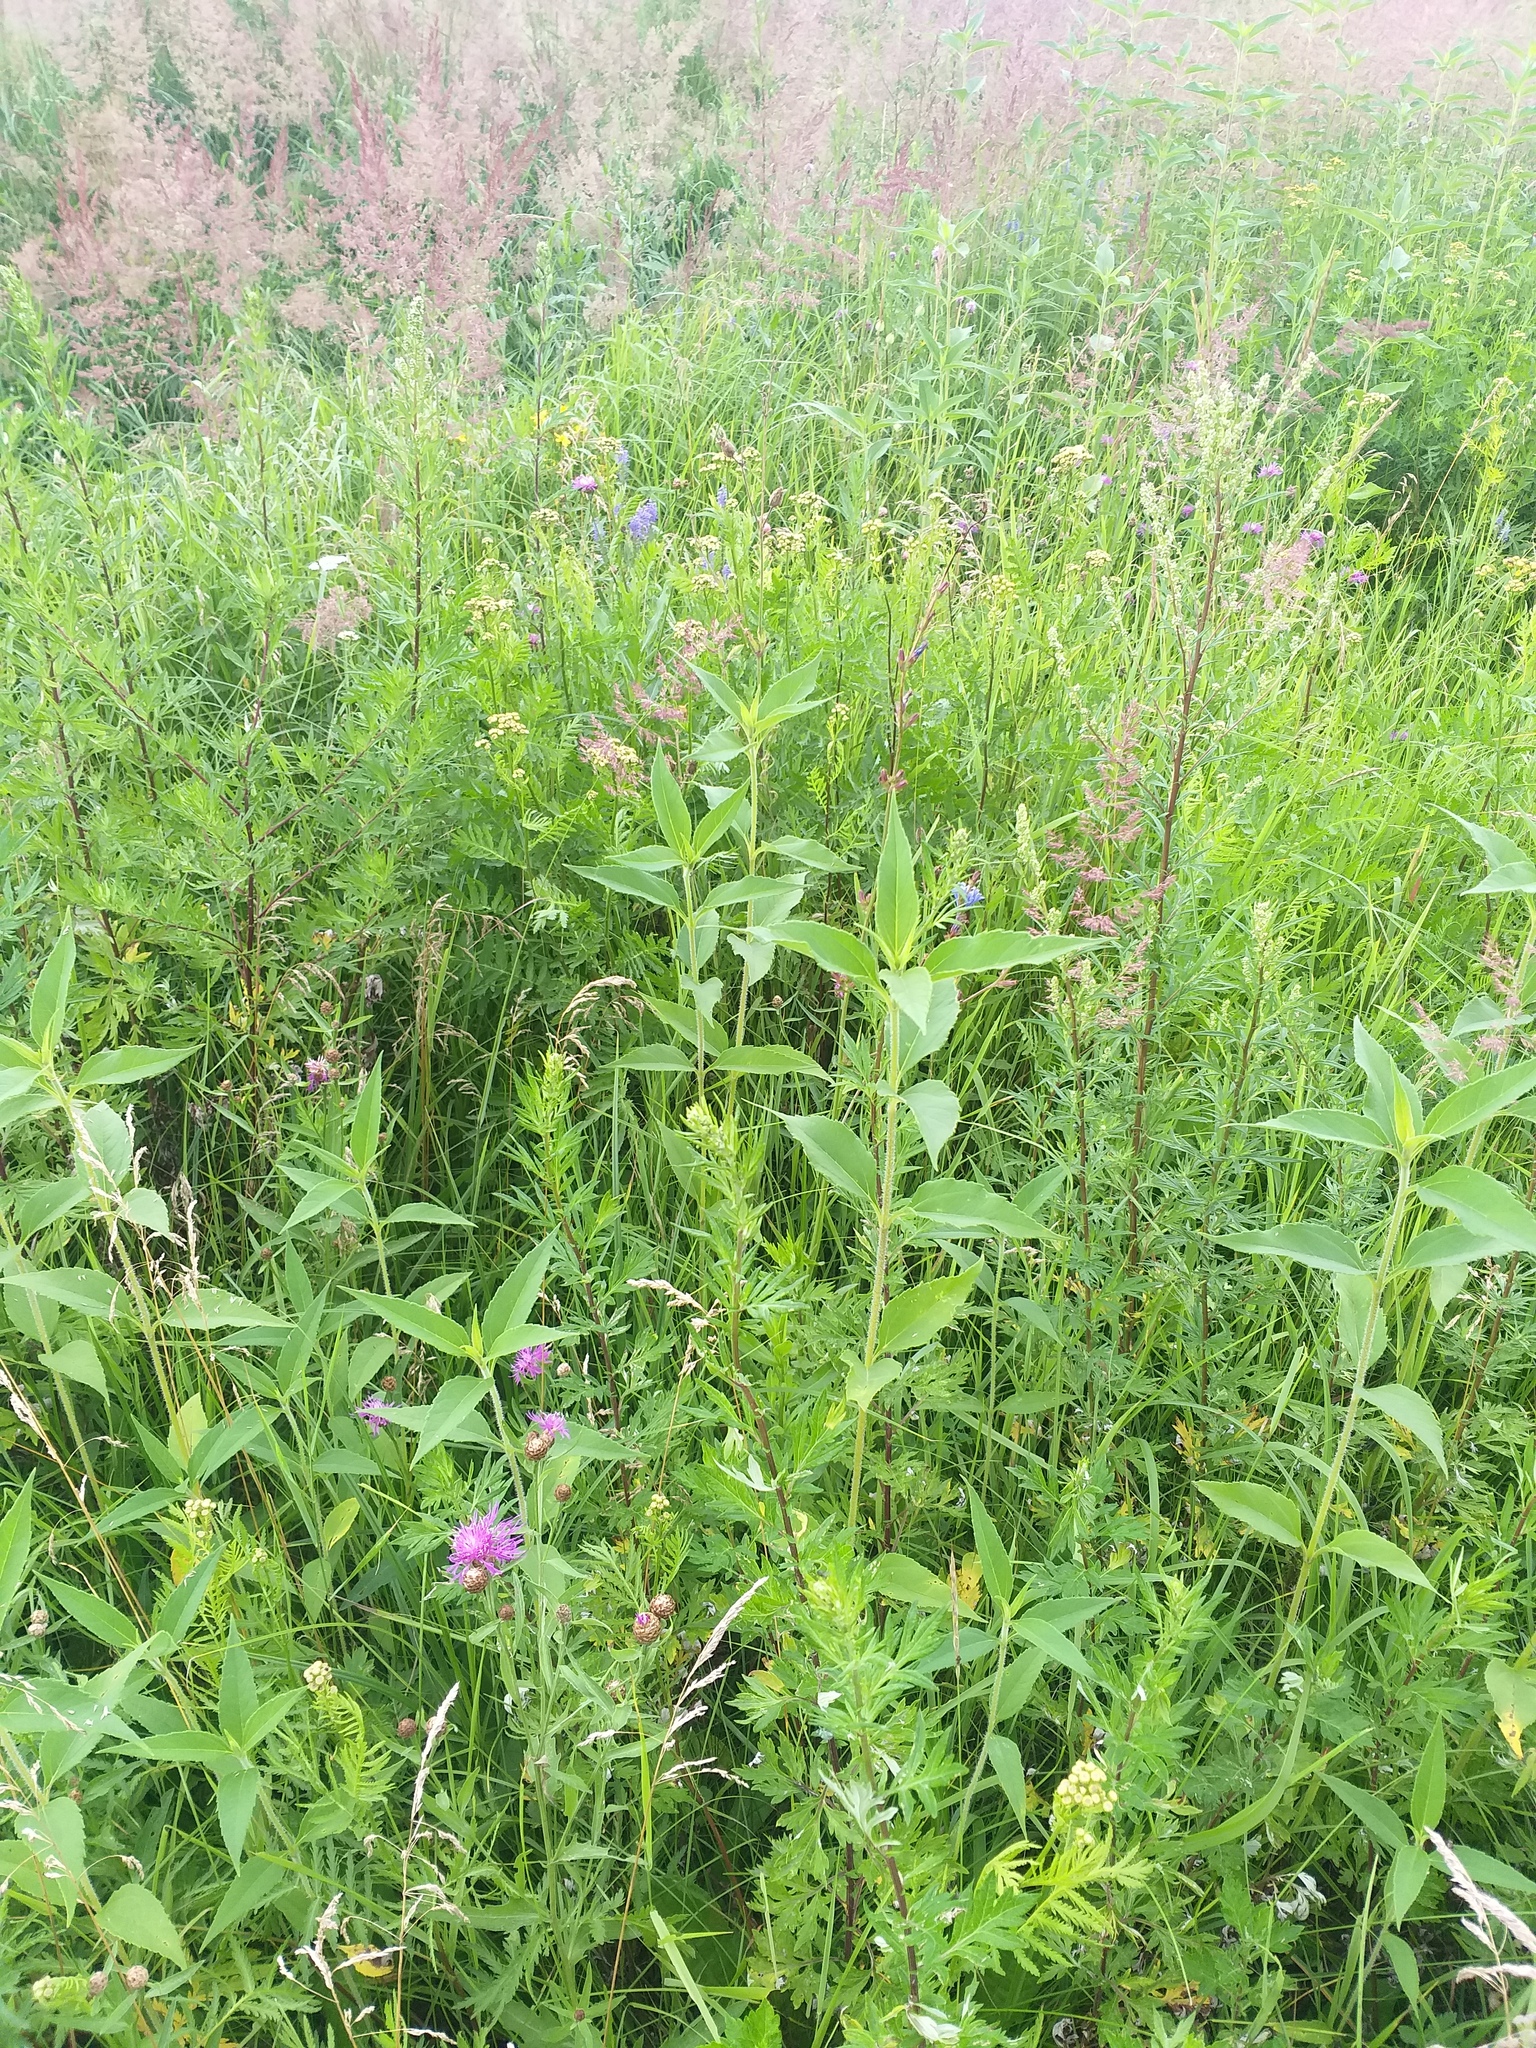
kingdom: Plantae
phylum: Tracheophyta
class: Magnoliopsida
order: Asterales
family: Asteraceae
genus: Helianthus
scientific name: Helianthus tuberosus
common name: Jerusalem artichoke
